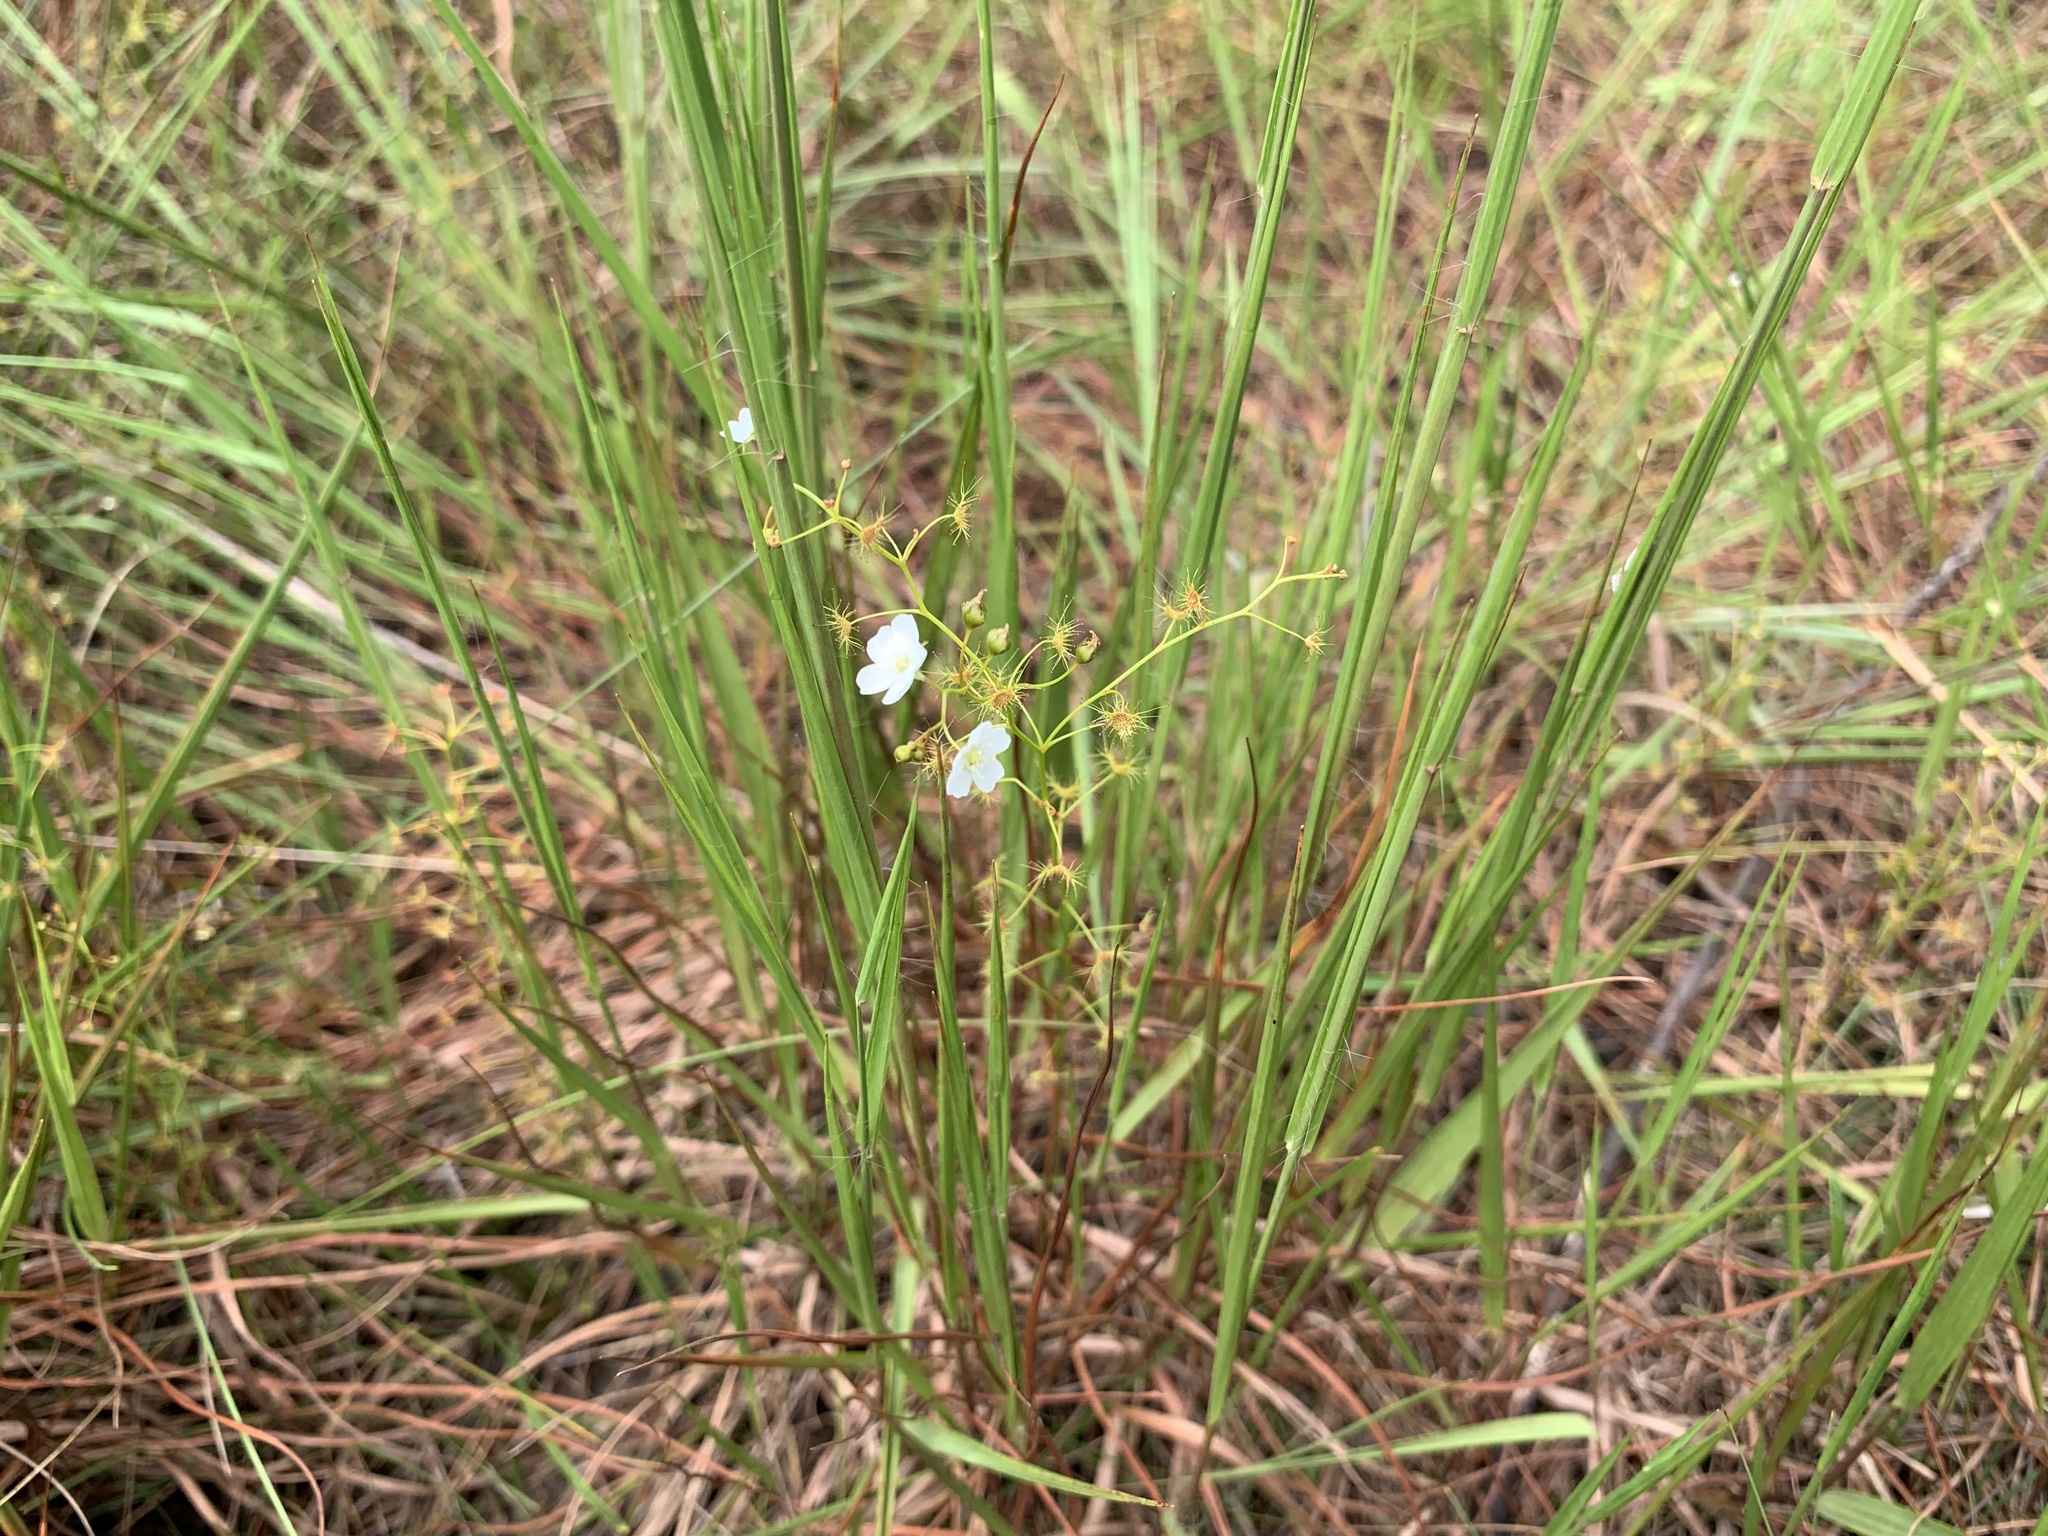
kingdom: Plantae
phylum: Tracheophyta
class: Magnoliopsida
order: Caryophyllales
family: Droseraceae
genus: Drosera
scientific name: Drosera peltata
